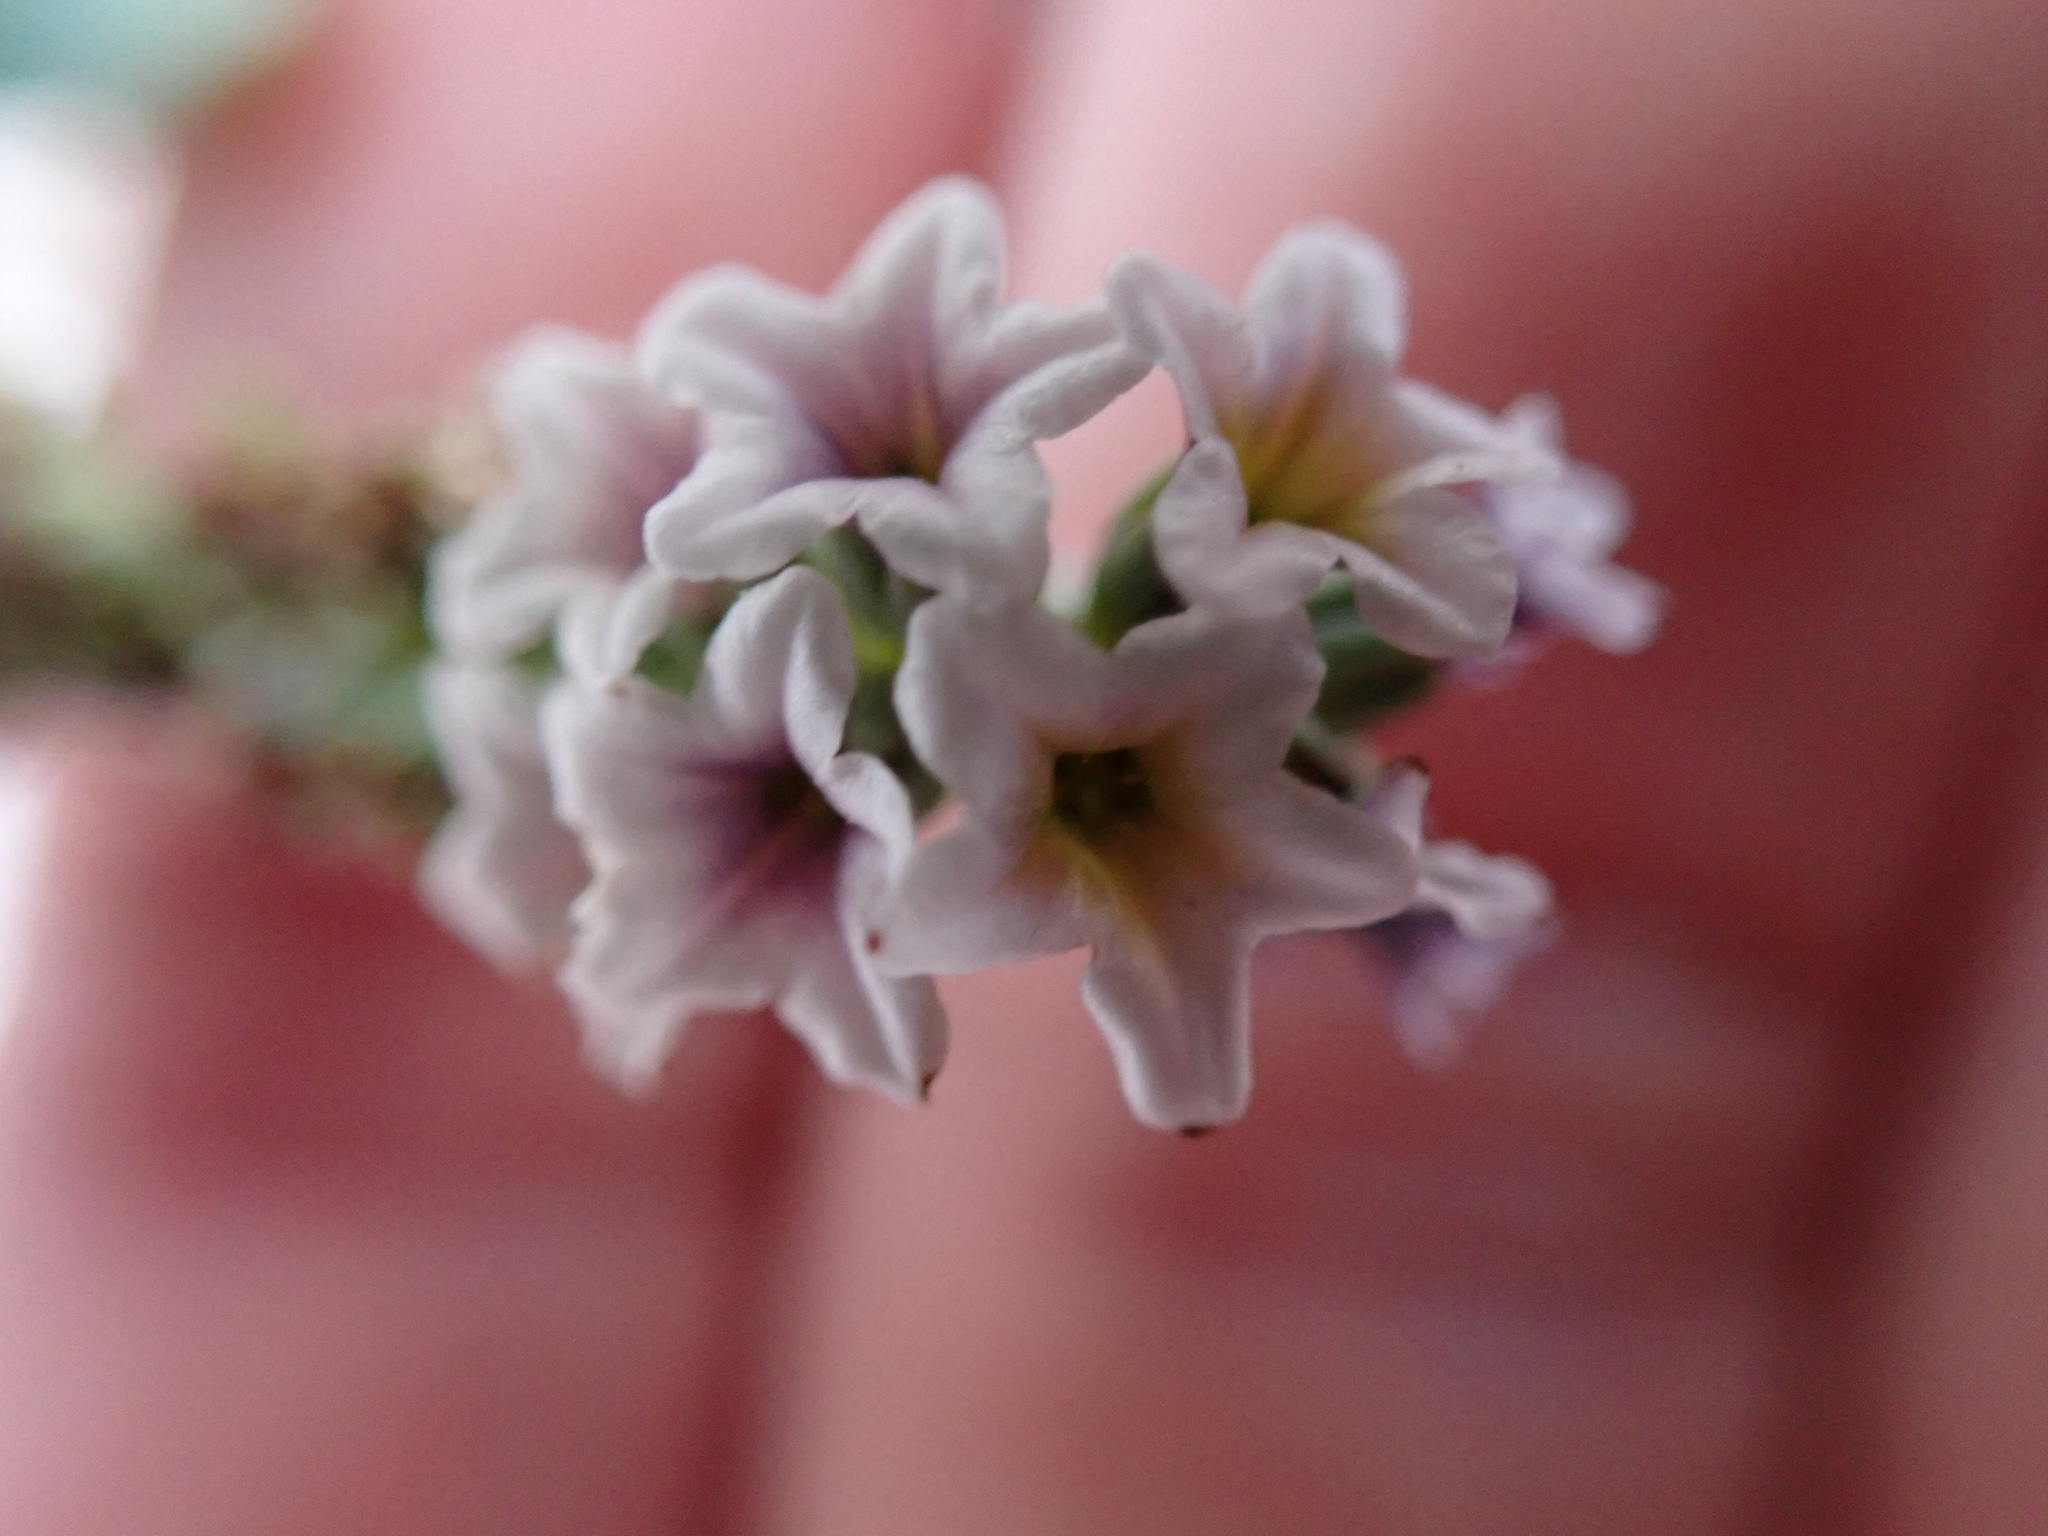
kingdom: Plantae
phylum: Tracheophyta
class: Magnoliopsida
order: Boraginales
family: Heliotropiaceae
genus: Heliotropium
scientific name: Heliotropium curassavicum
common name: Seaside heliotrope
